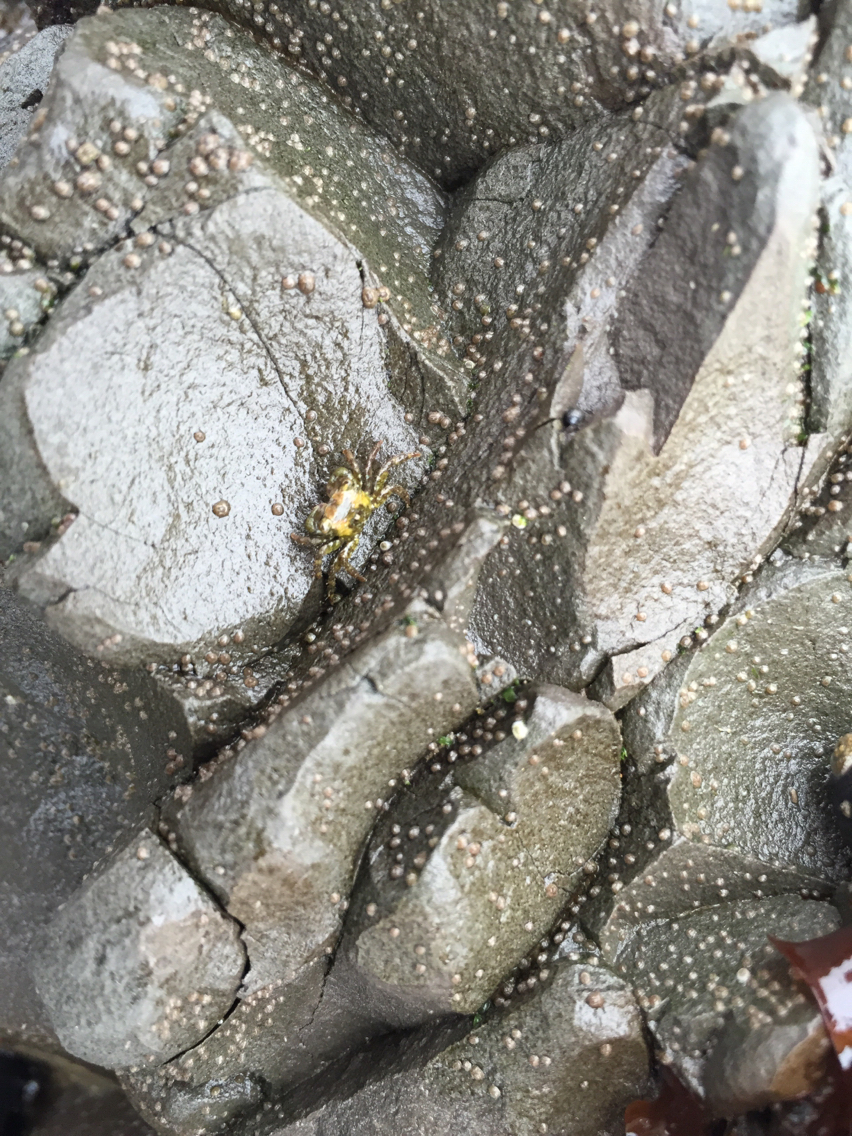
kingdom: Animalia
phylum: Arthropoda
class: Malacostraca
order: Decapoda
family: Grapsidae
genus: Pachygrapsus
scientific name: Pachygrapsus crassipes
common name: Striped shore crab
